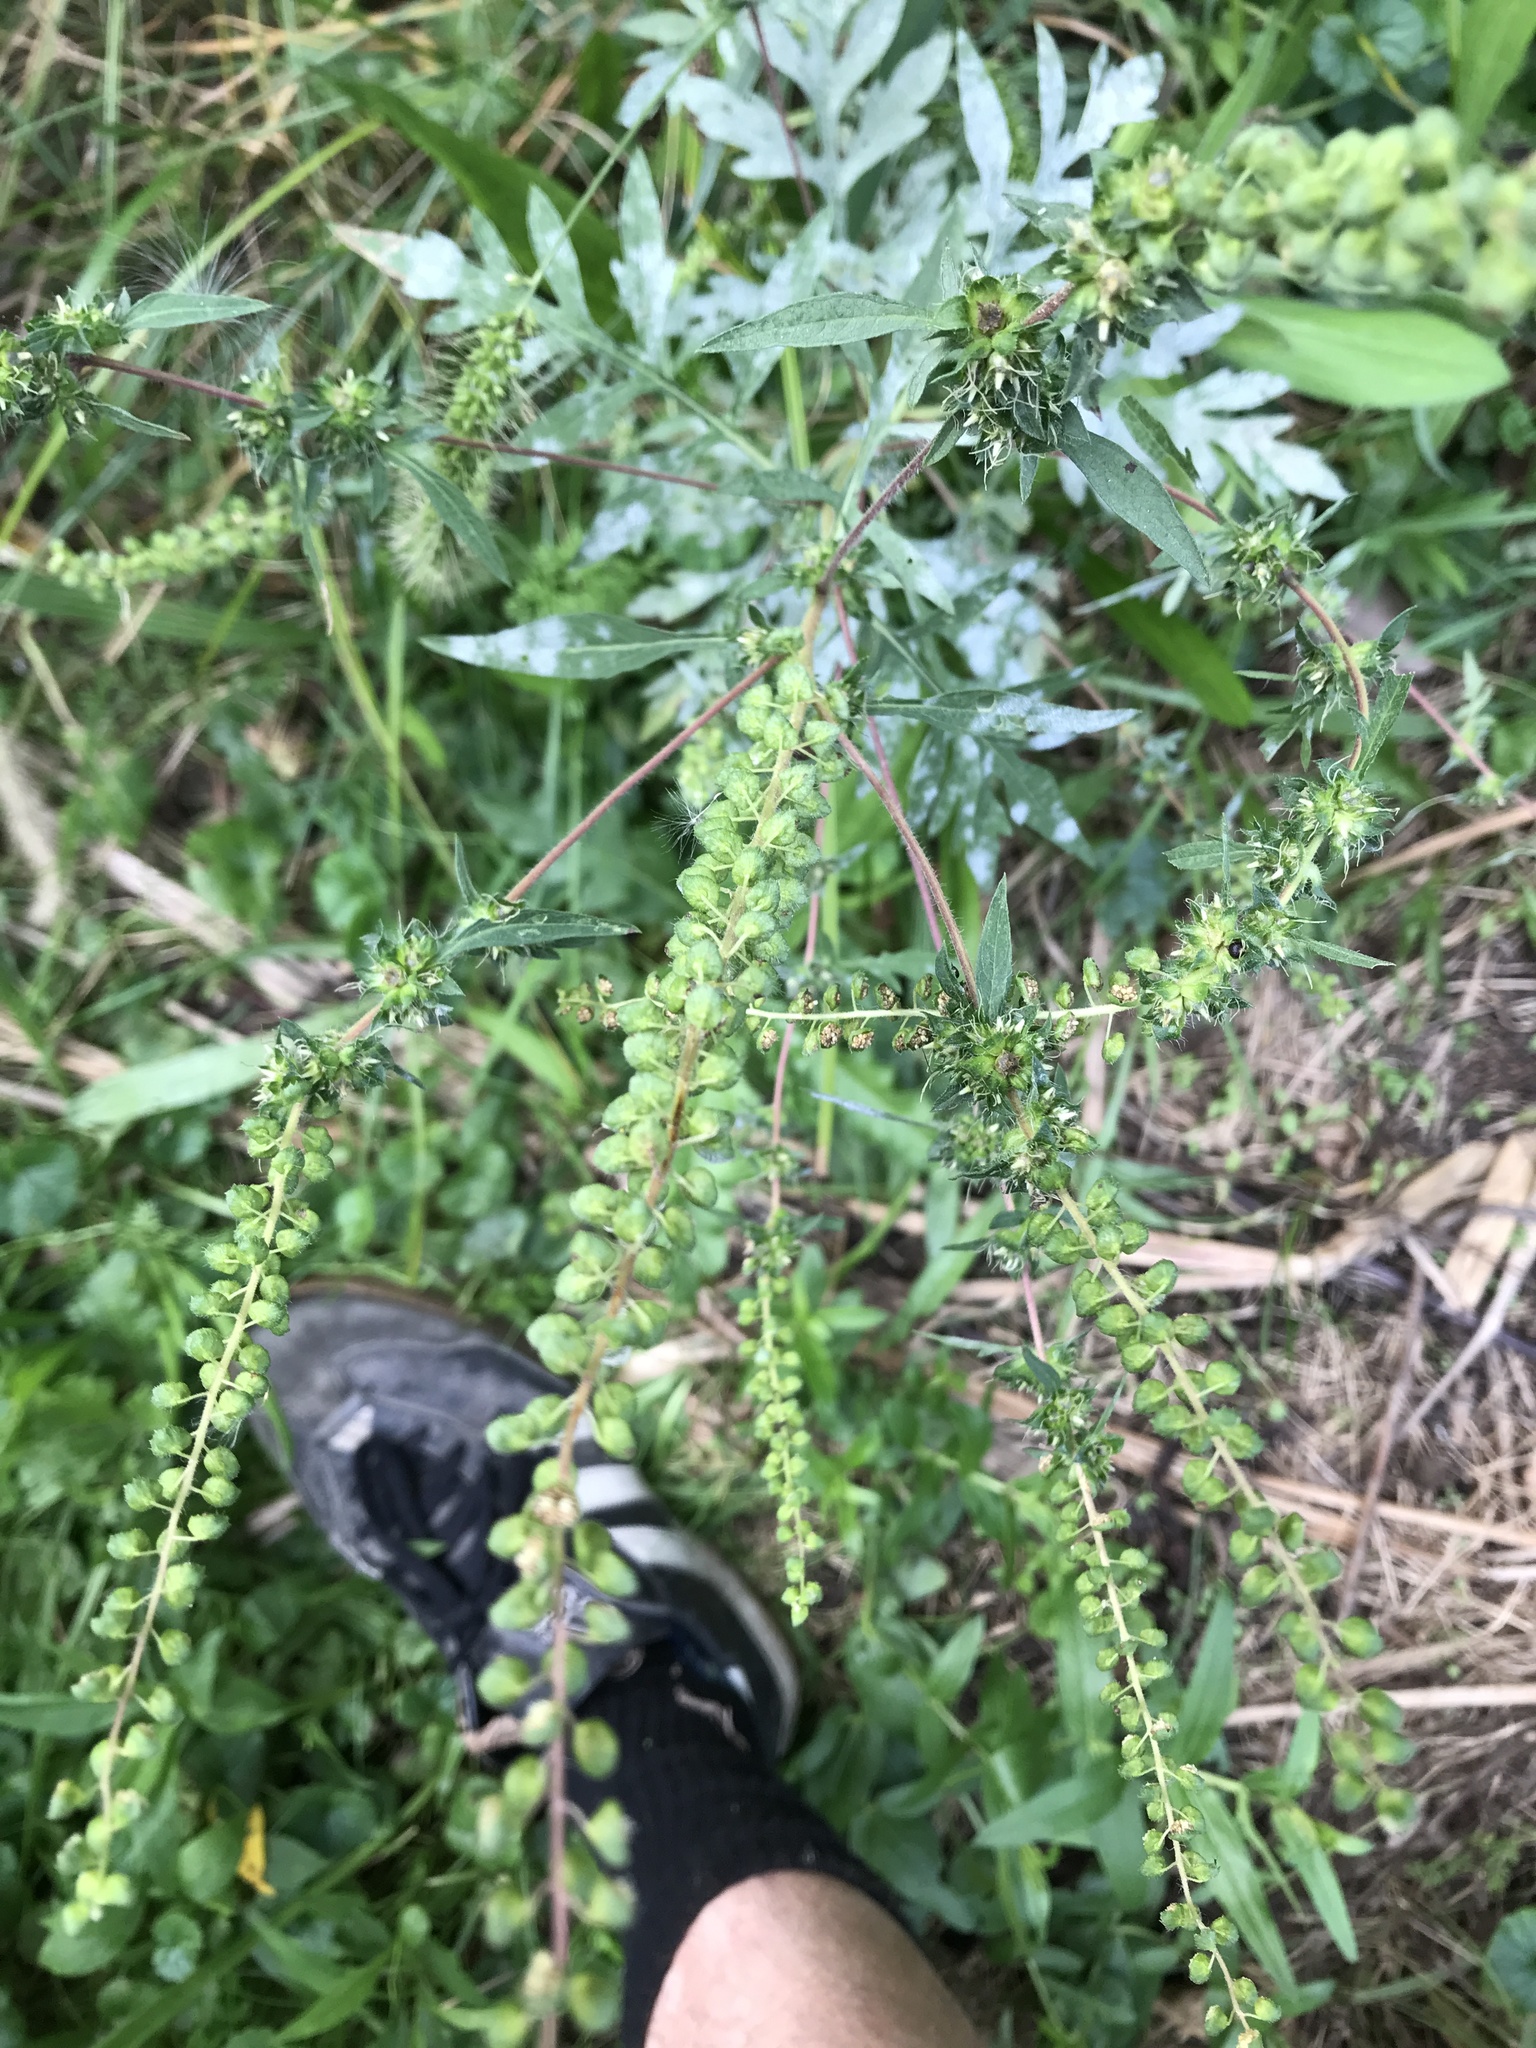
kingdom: Plantae
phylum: Tracheophyta
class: Magnoliopsida
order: Asterales
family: Asteraceae
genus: Ambrosia
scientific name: Ambrosia artemisiifolia
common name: Annual ragweed
